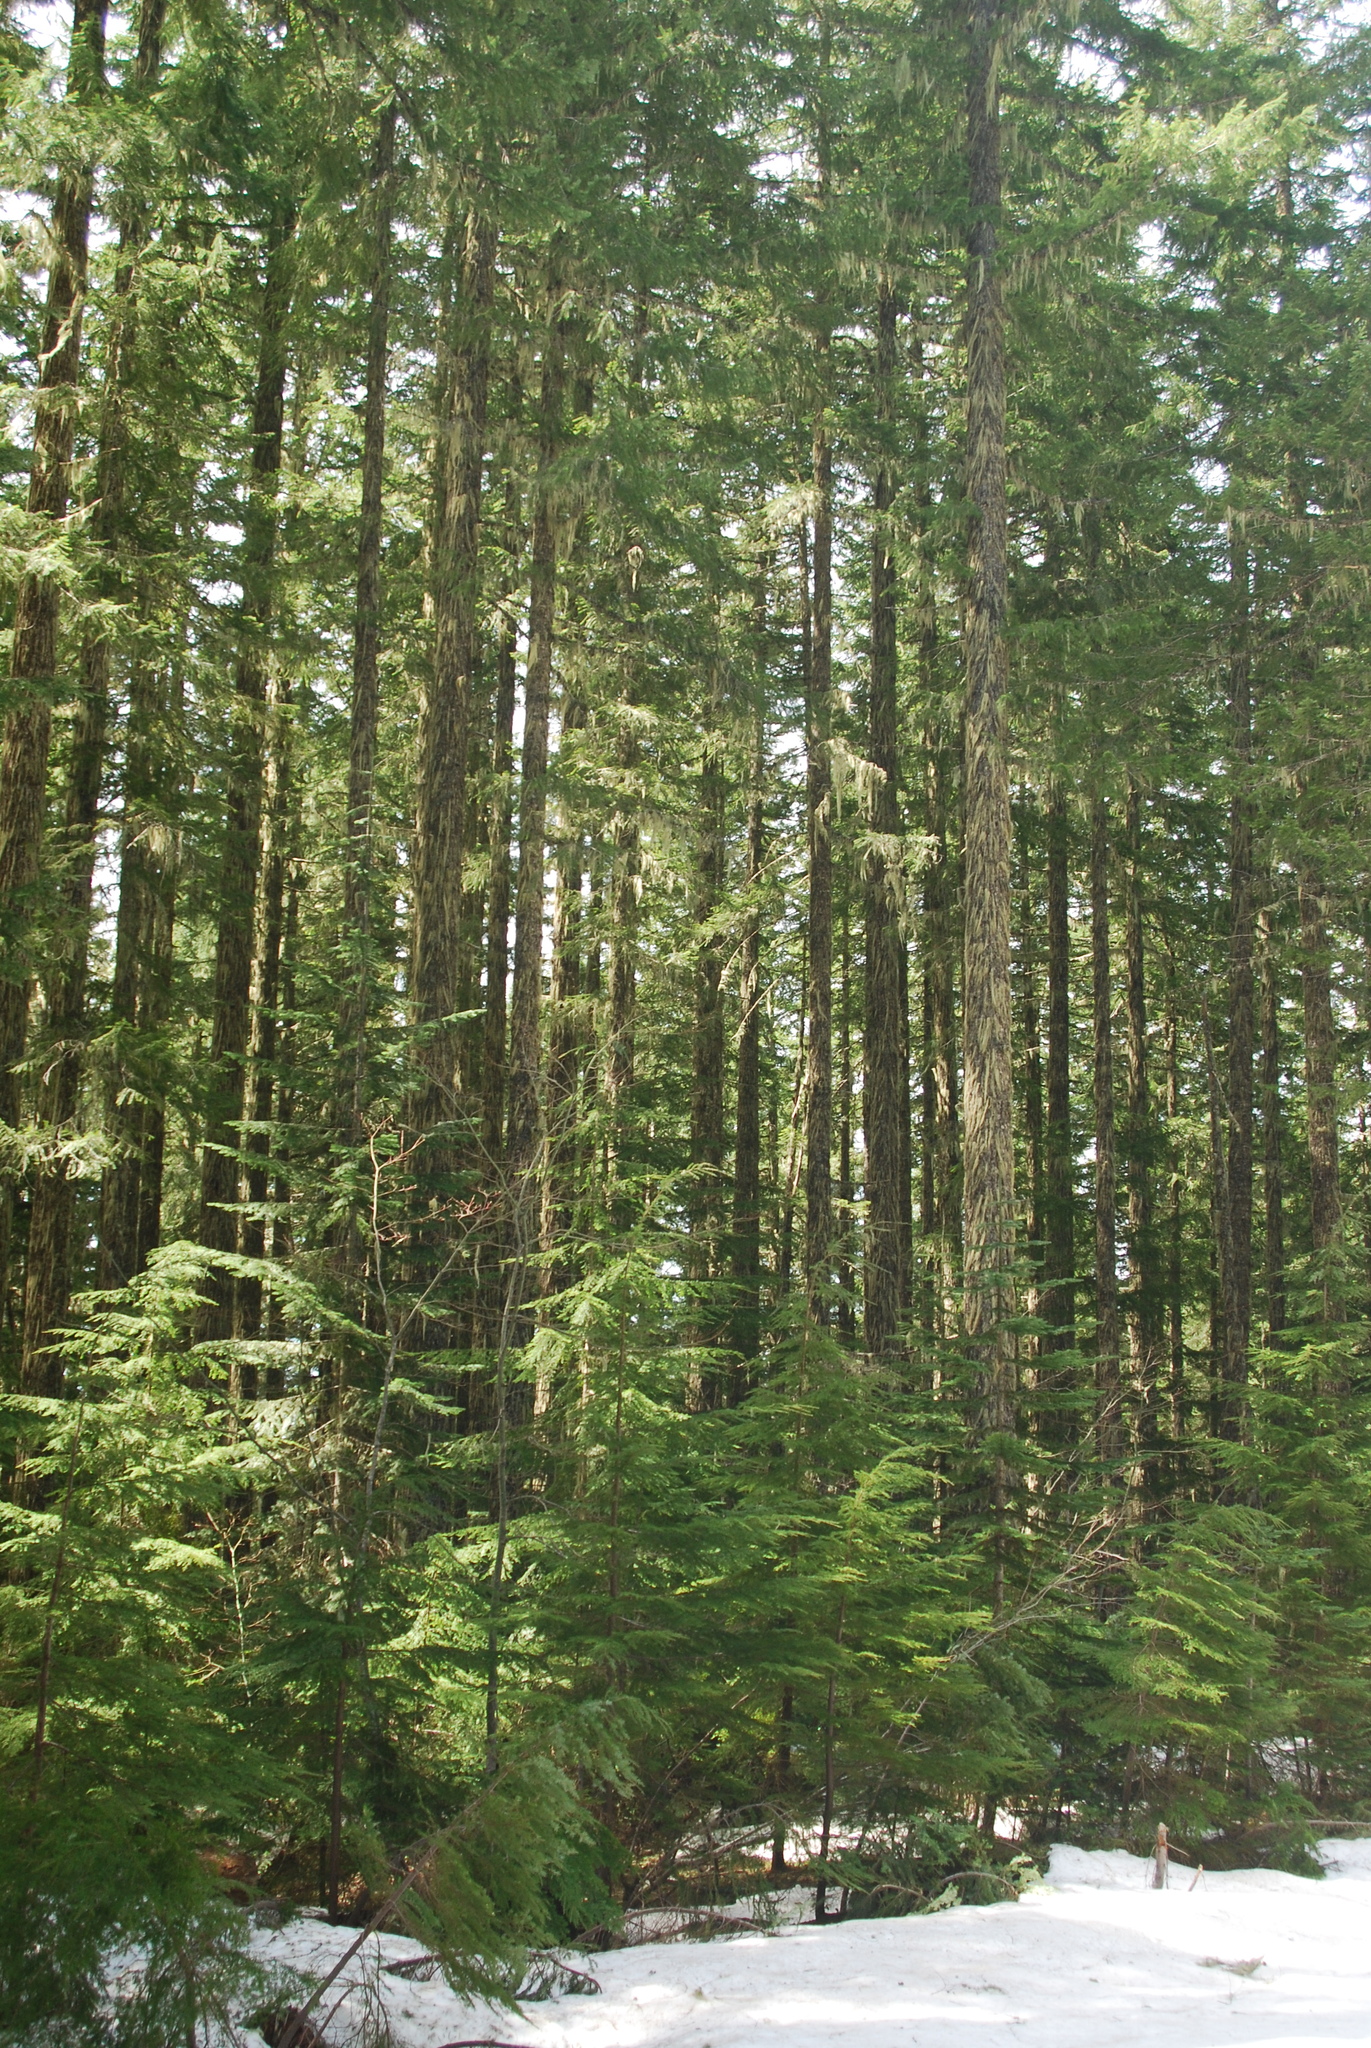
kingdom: Plantae
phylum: Tracheophyta
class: Pinopsida
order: Pinales
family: Pinaceae
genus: Pseudotsuga
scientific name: Pseudotsuga menziesii
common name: Douglas fir
